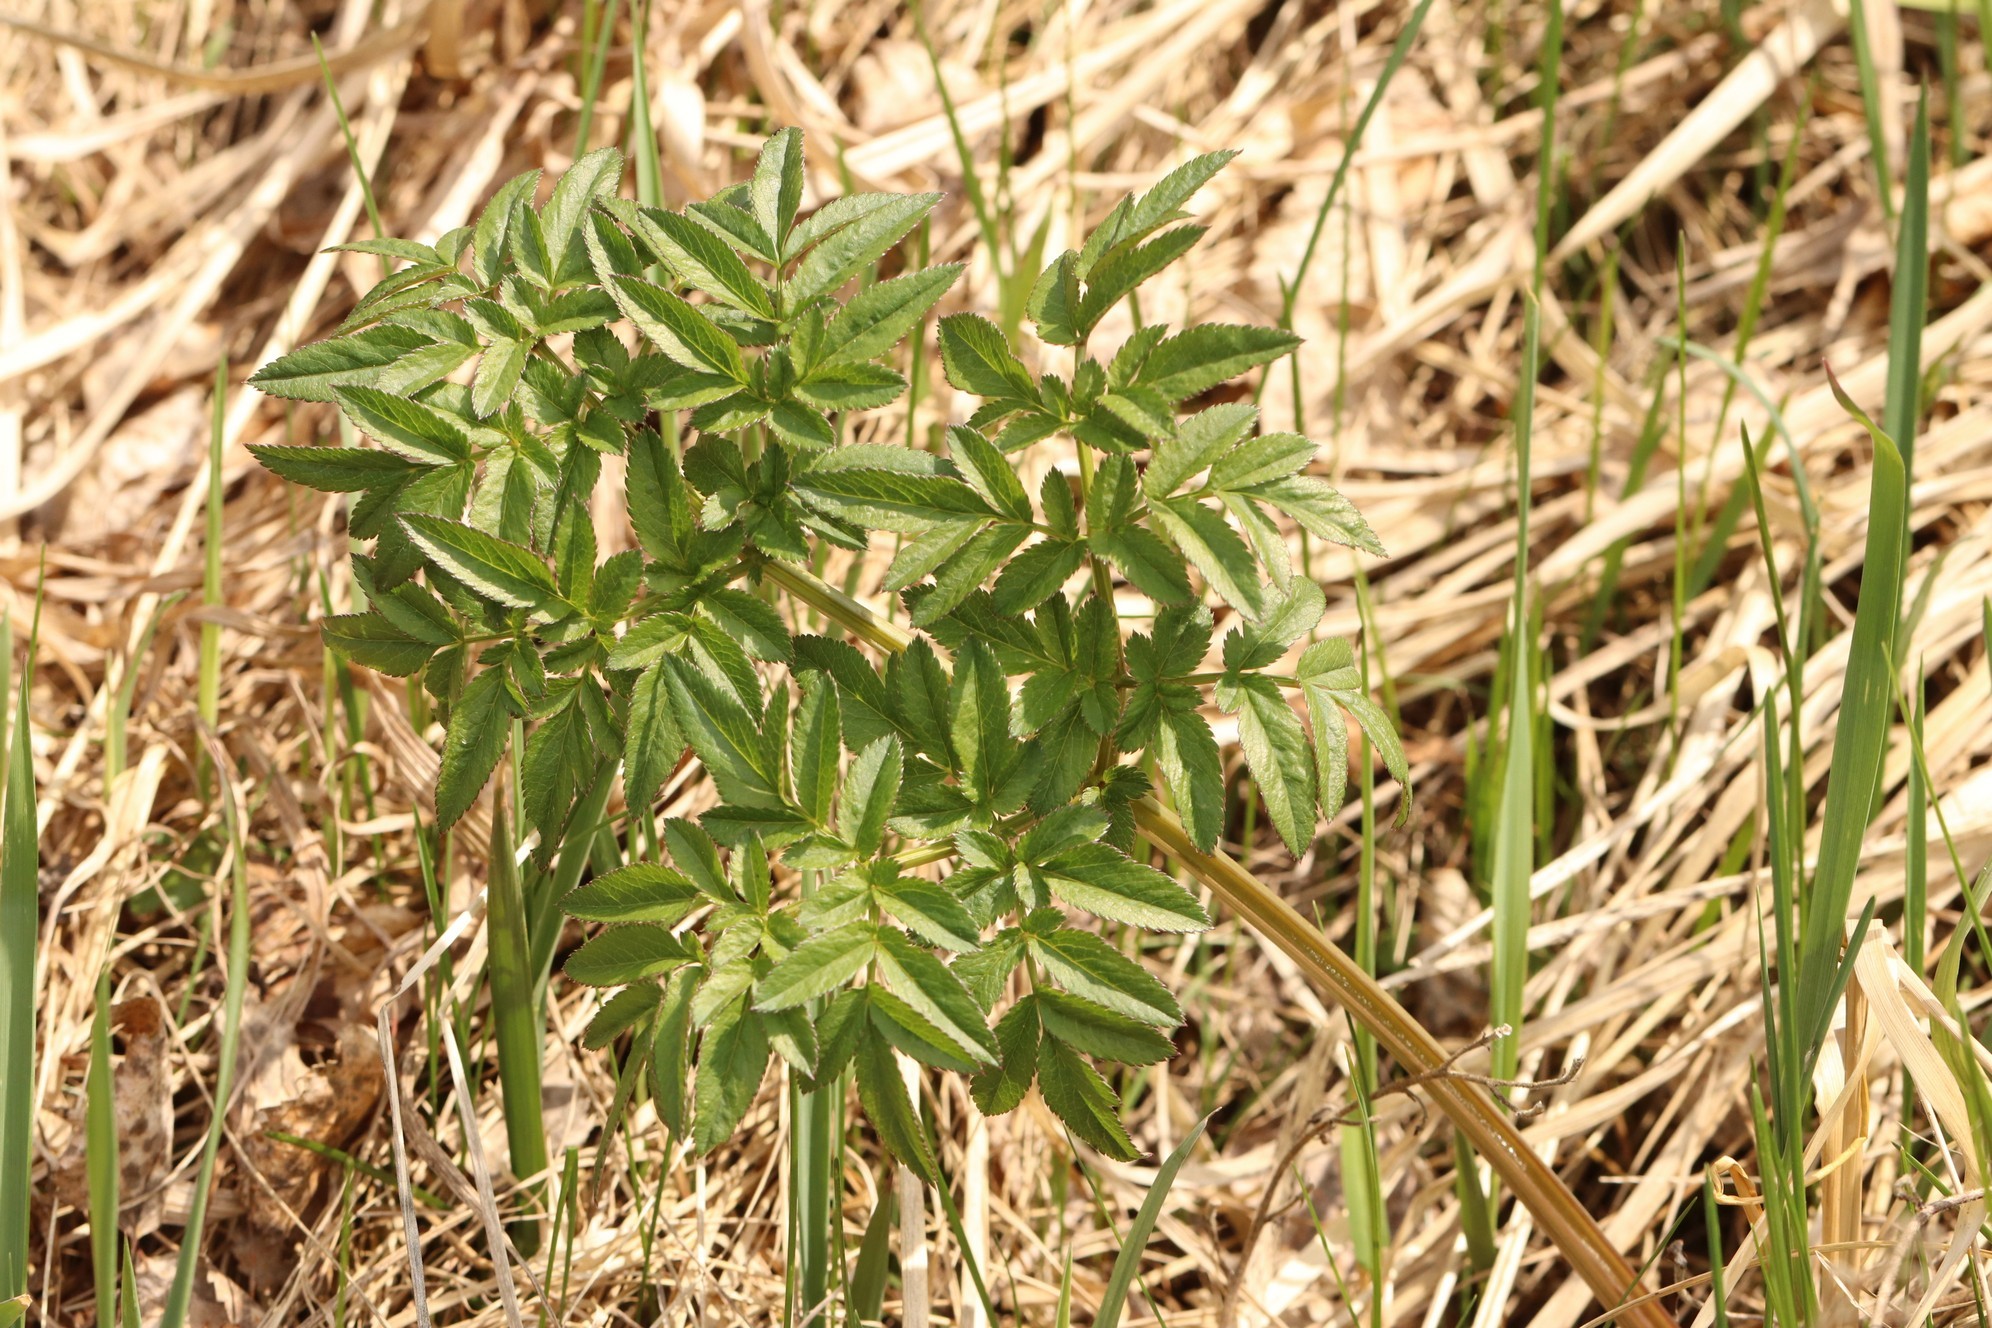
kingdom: Plantae
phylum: Tracheophyta
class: Magnoliopsida
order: Apiales
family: Apiaceae
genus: Angelica
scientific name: Angelica sylvestris
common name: Wild angelica
